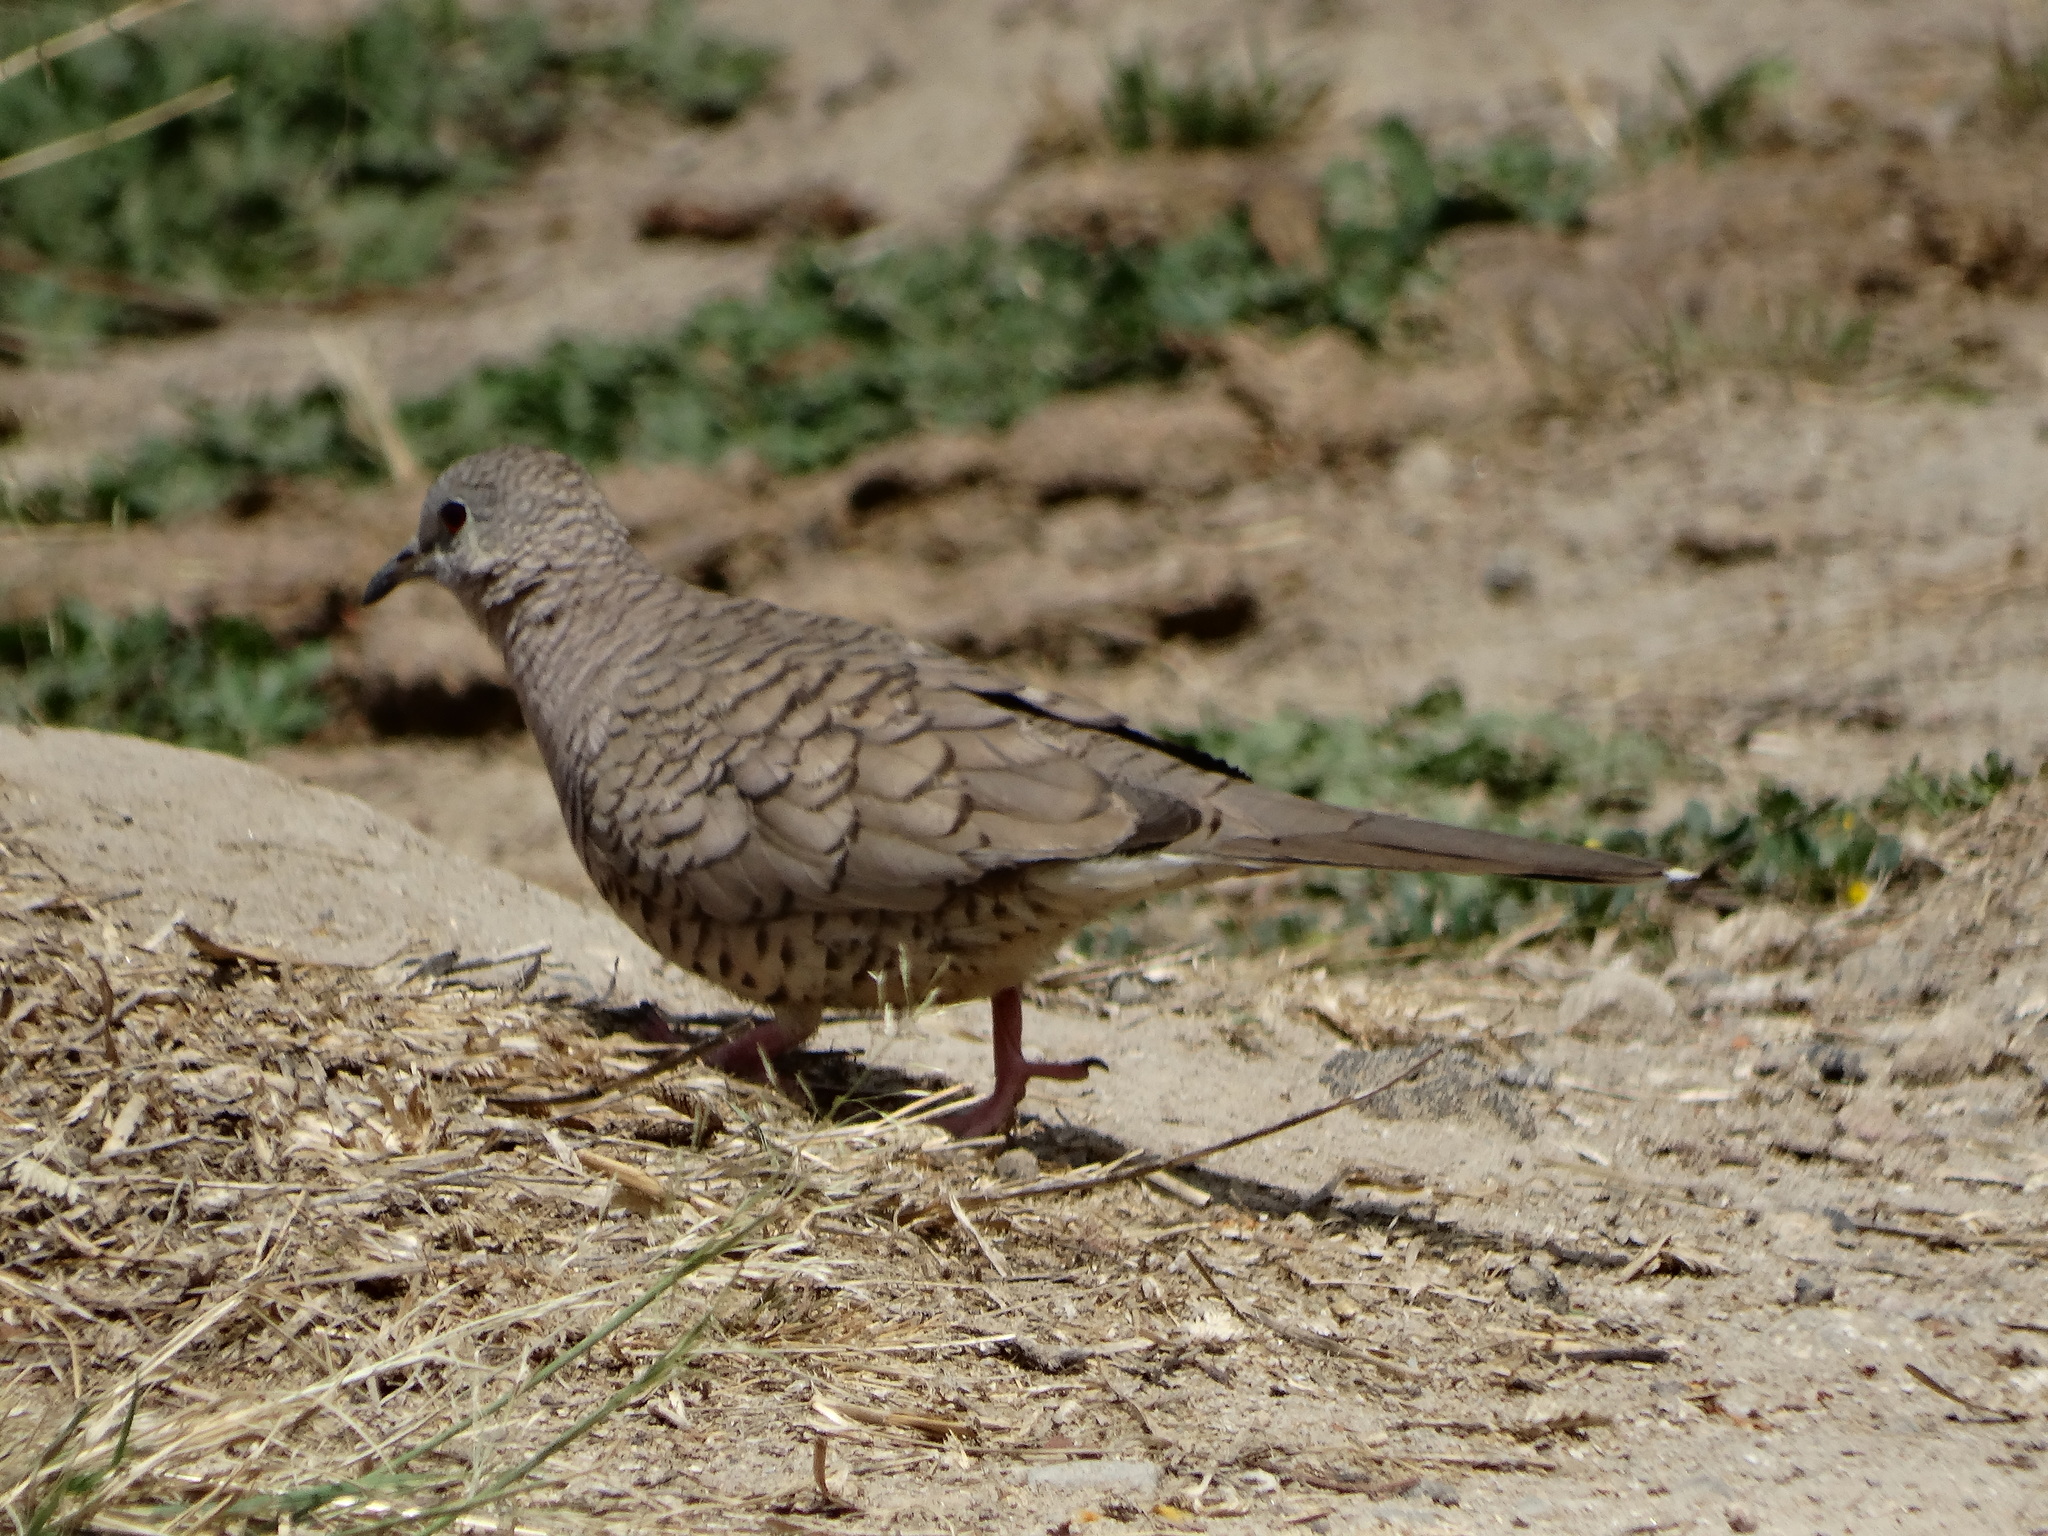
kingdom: Animalia
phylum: Chordata
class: Aves
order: Columbiformes
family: Columbidae
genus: Columbina
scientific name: Columbina inca
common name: Inca dove
